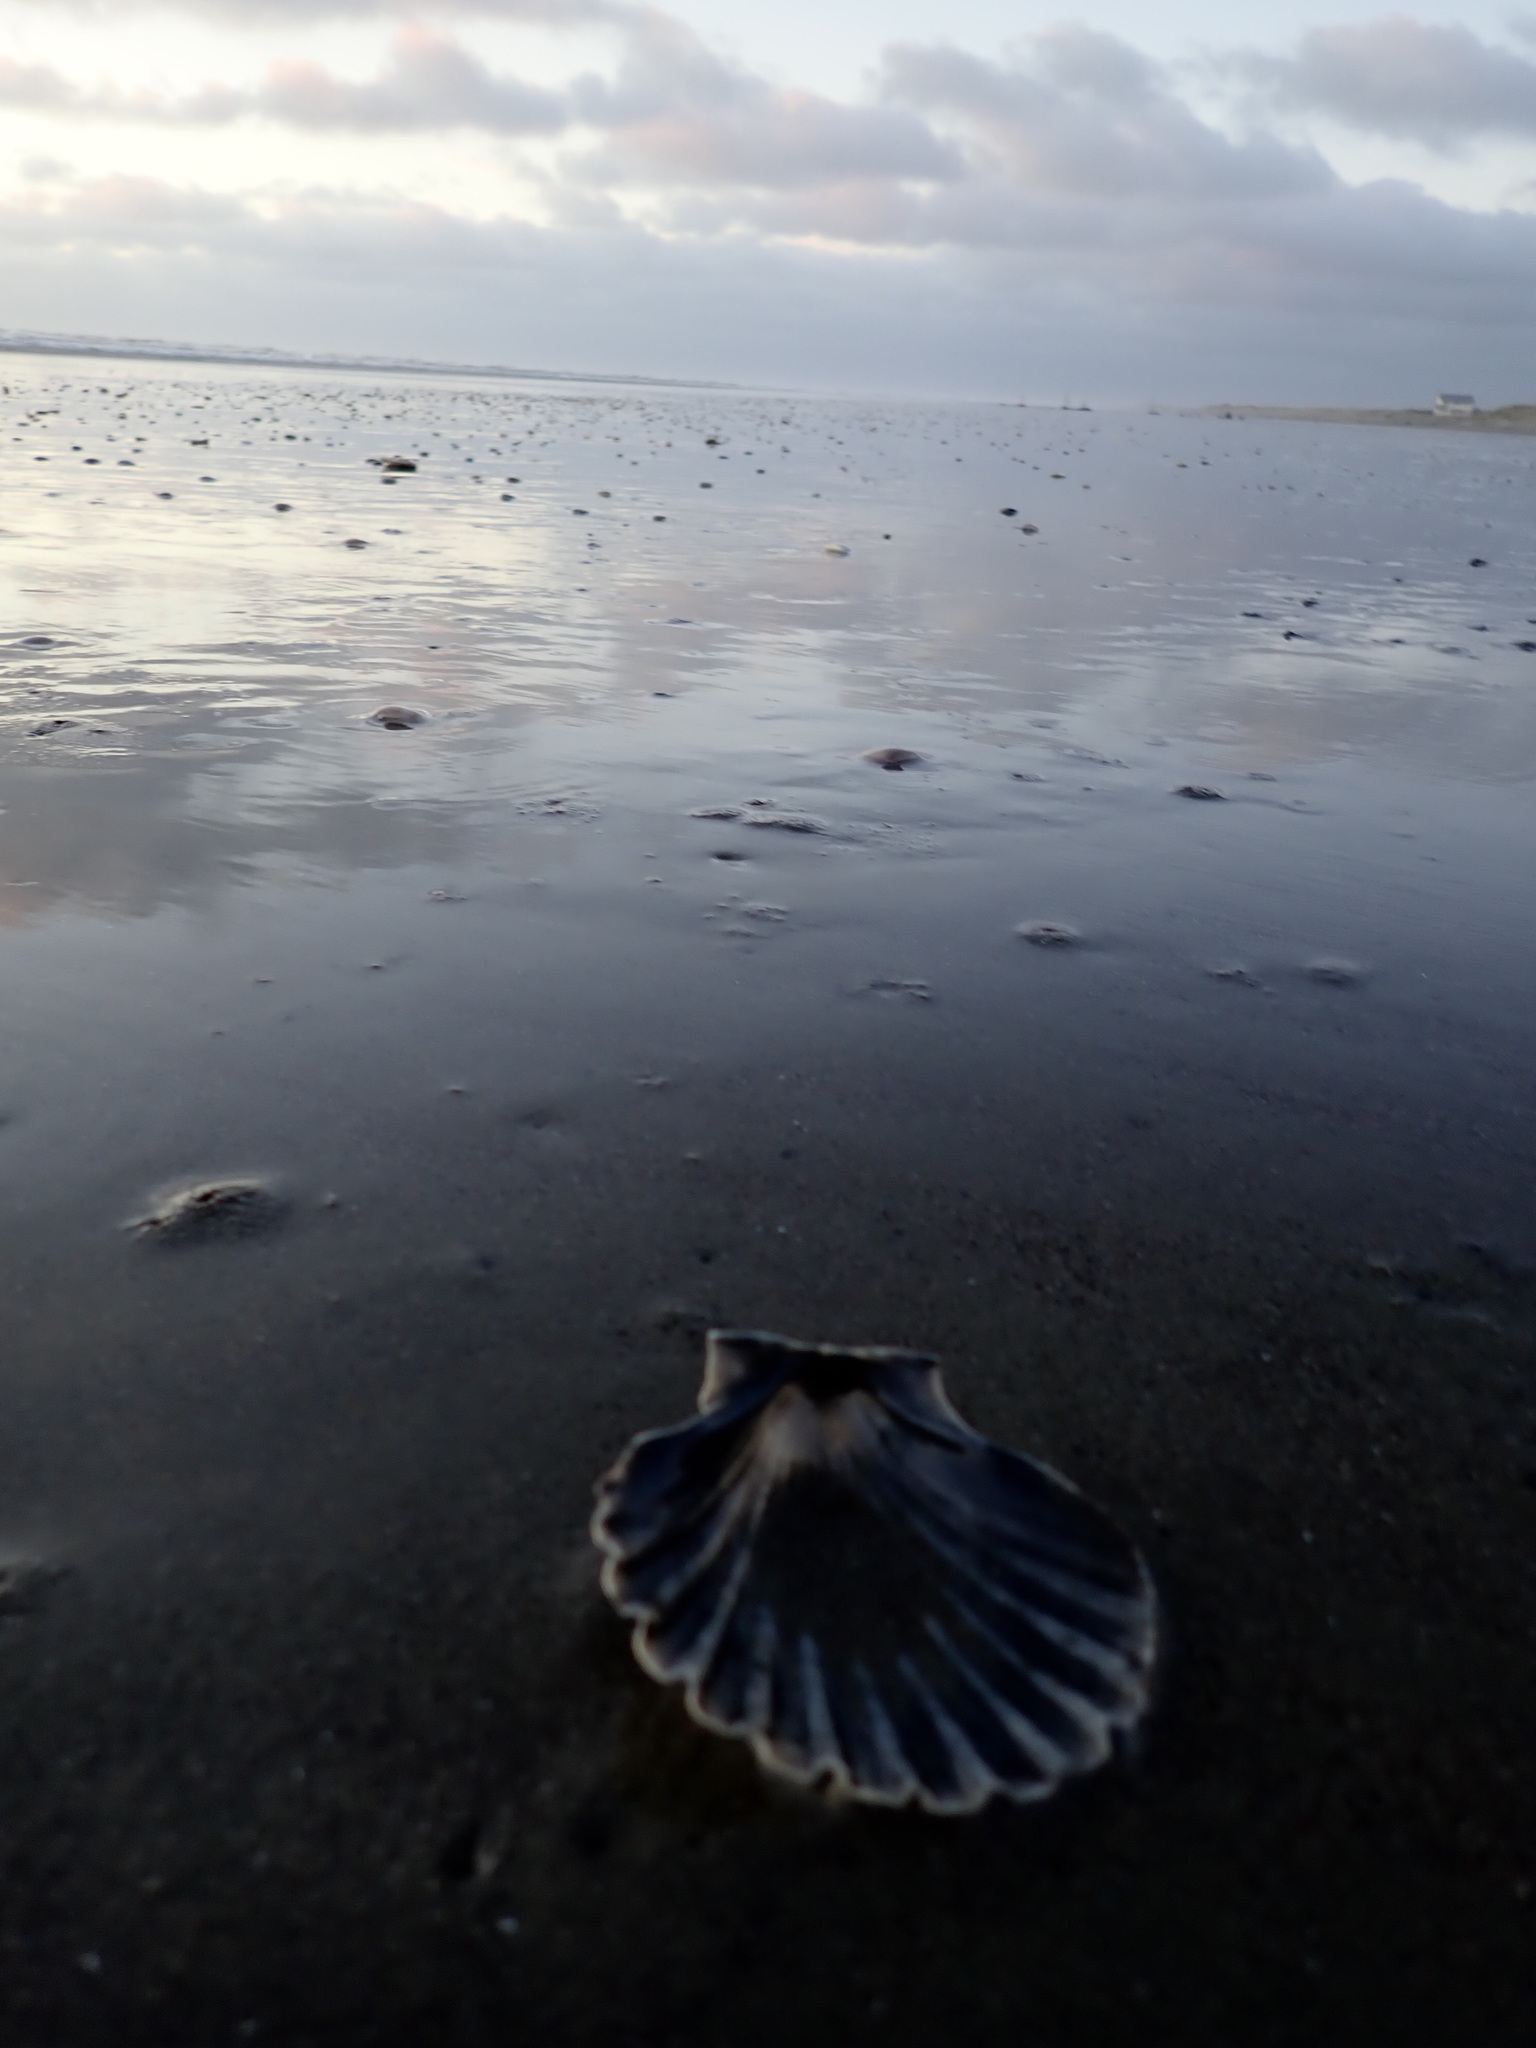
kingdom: Animalia
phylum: Mollusca
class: Bivalvia
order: Pectinida
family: Pectinidae
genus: Pecten
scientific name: Pecten novaezelandiae
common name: New zealand scallop
